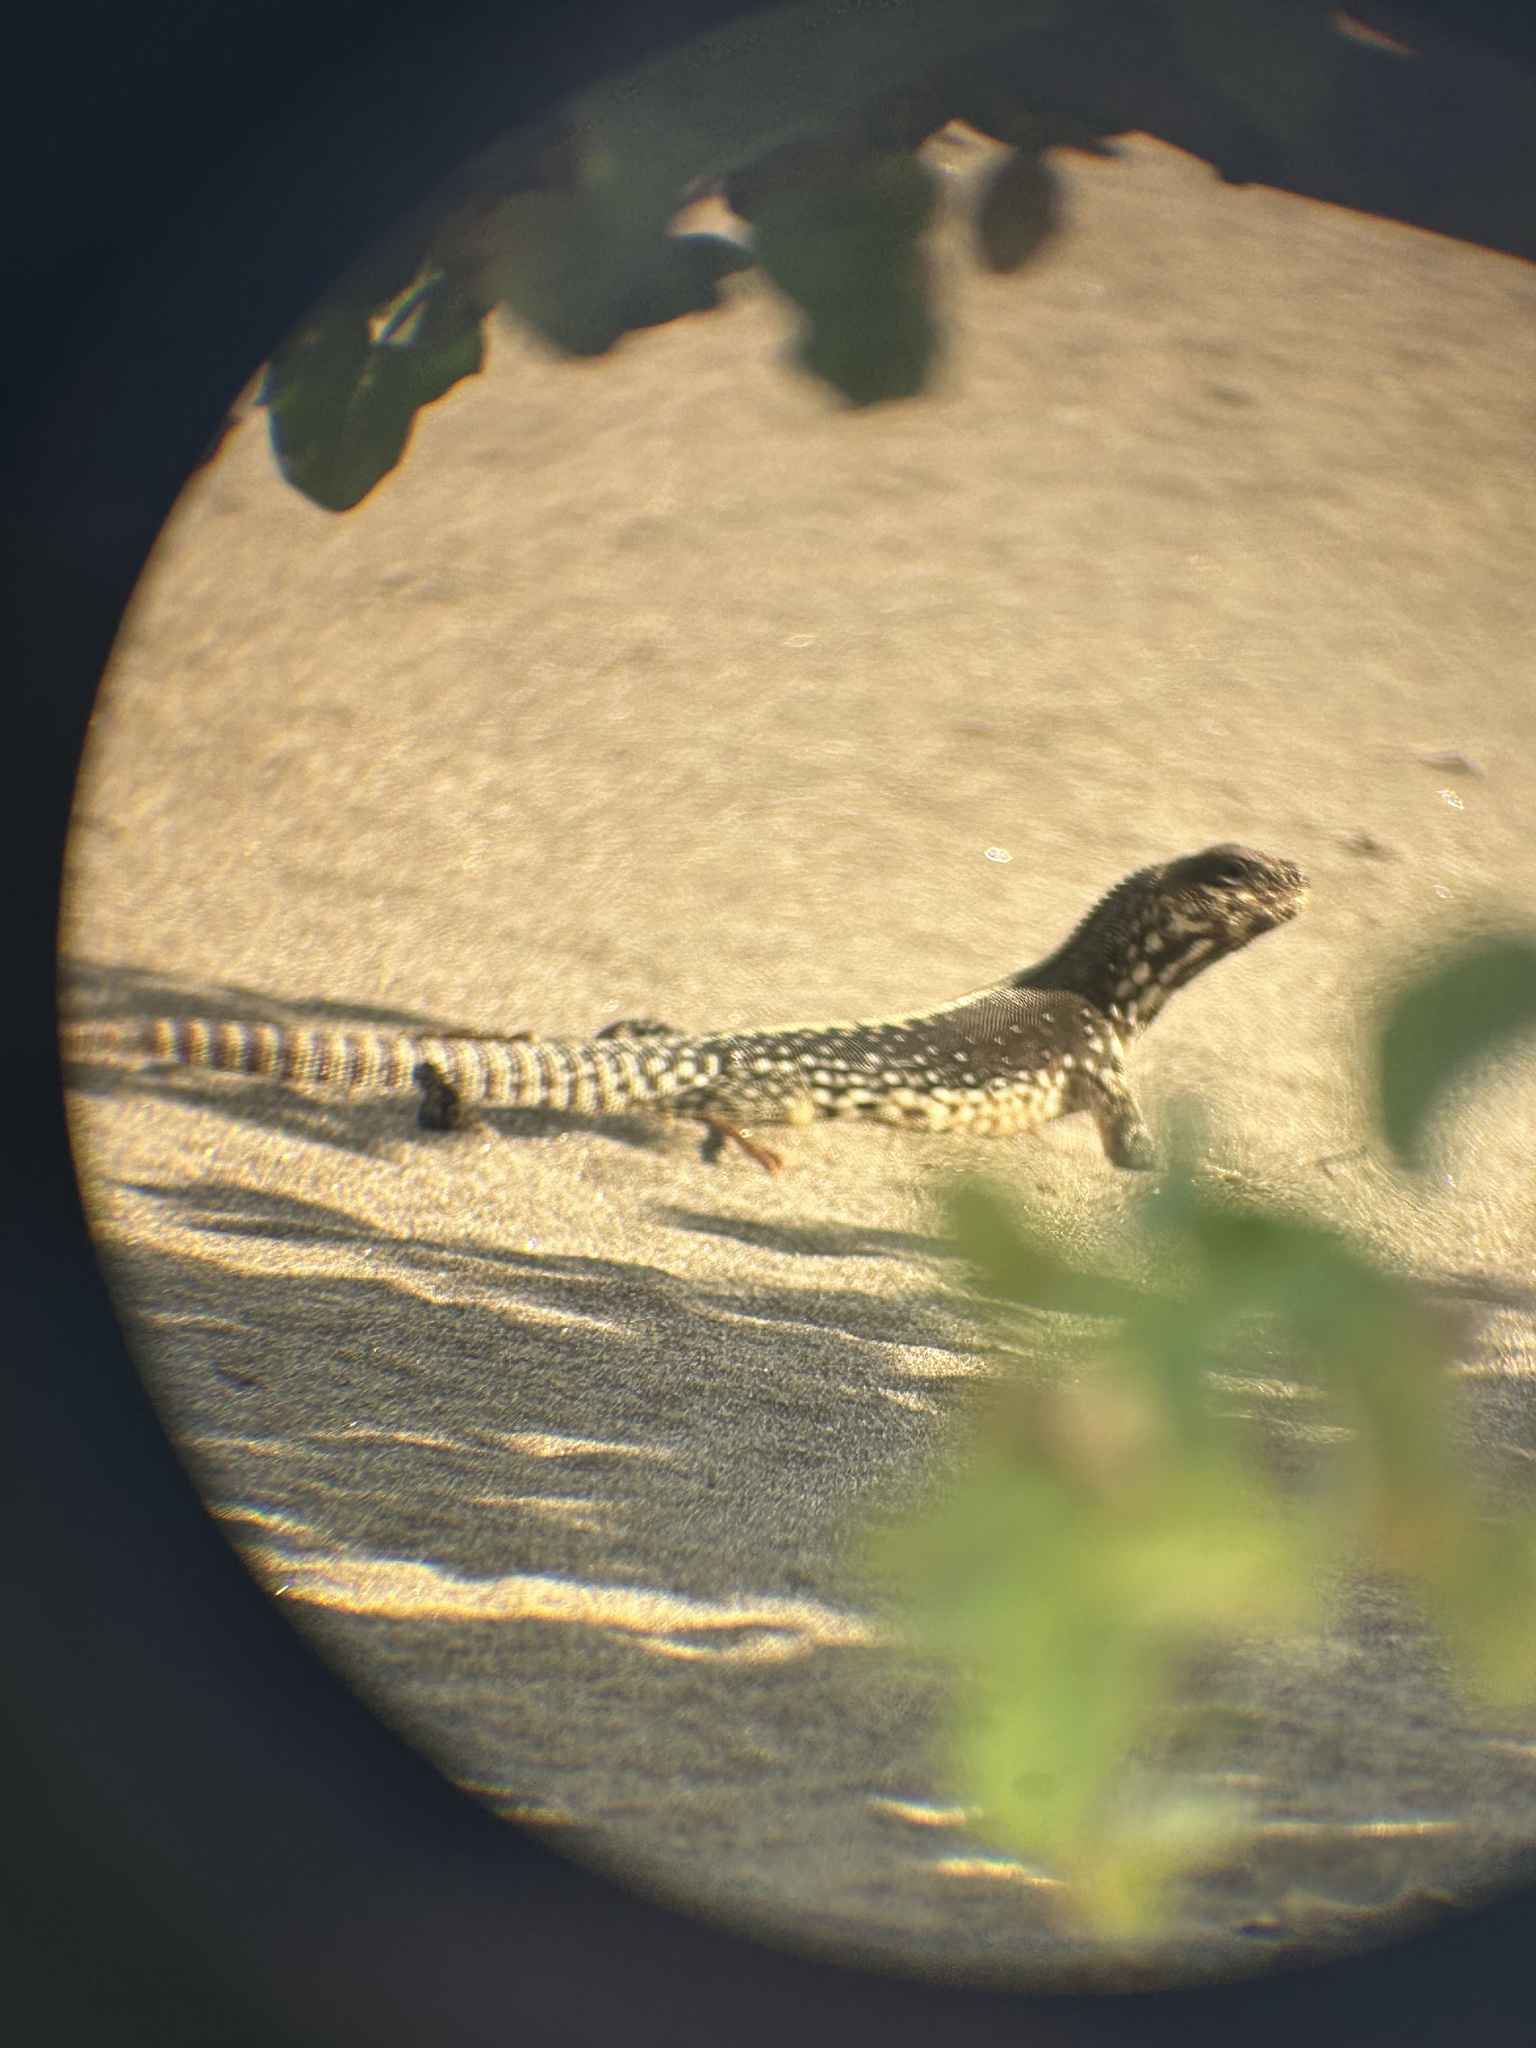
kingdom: Animalia
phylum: Chordata
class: Squamata
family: Iguanidae
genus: Dipsosaurus
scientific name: Dipsosaurus dorsalis
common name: Desert iguana
